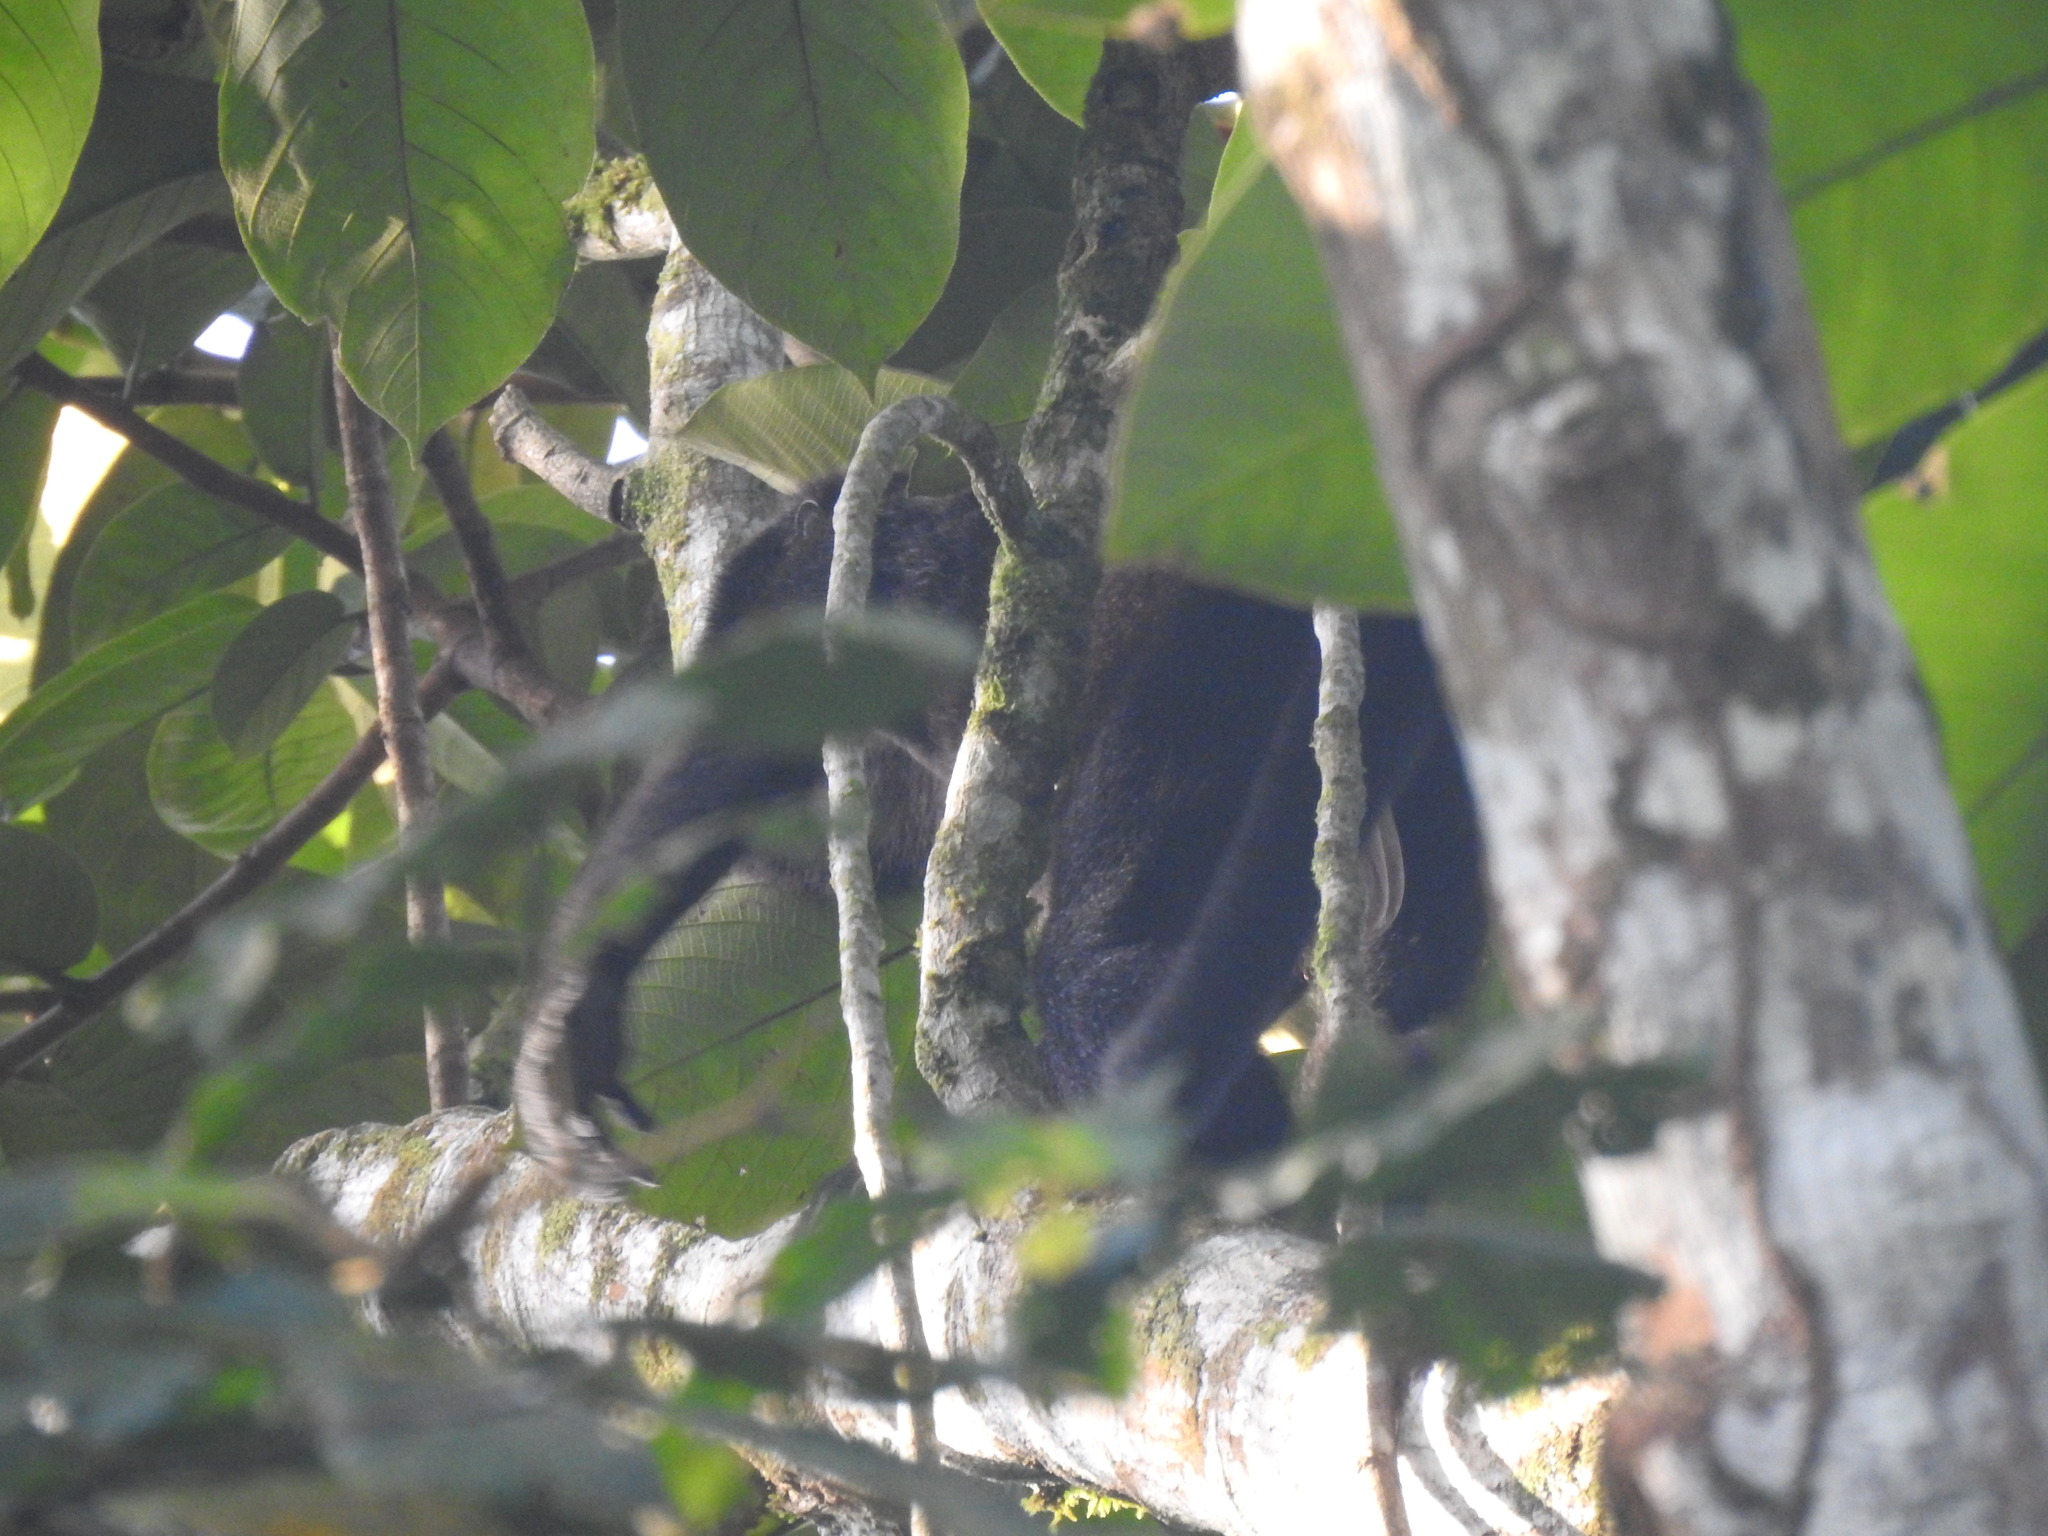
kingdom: Animalia
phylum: Chordata
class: Mammalia
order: Primates
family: Atelidae
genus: Alouatta
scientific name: Alouatta palliata
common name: Mantled howler
